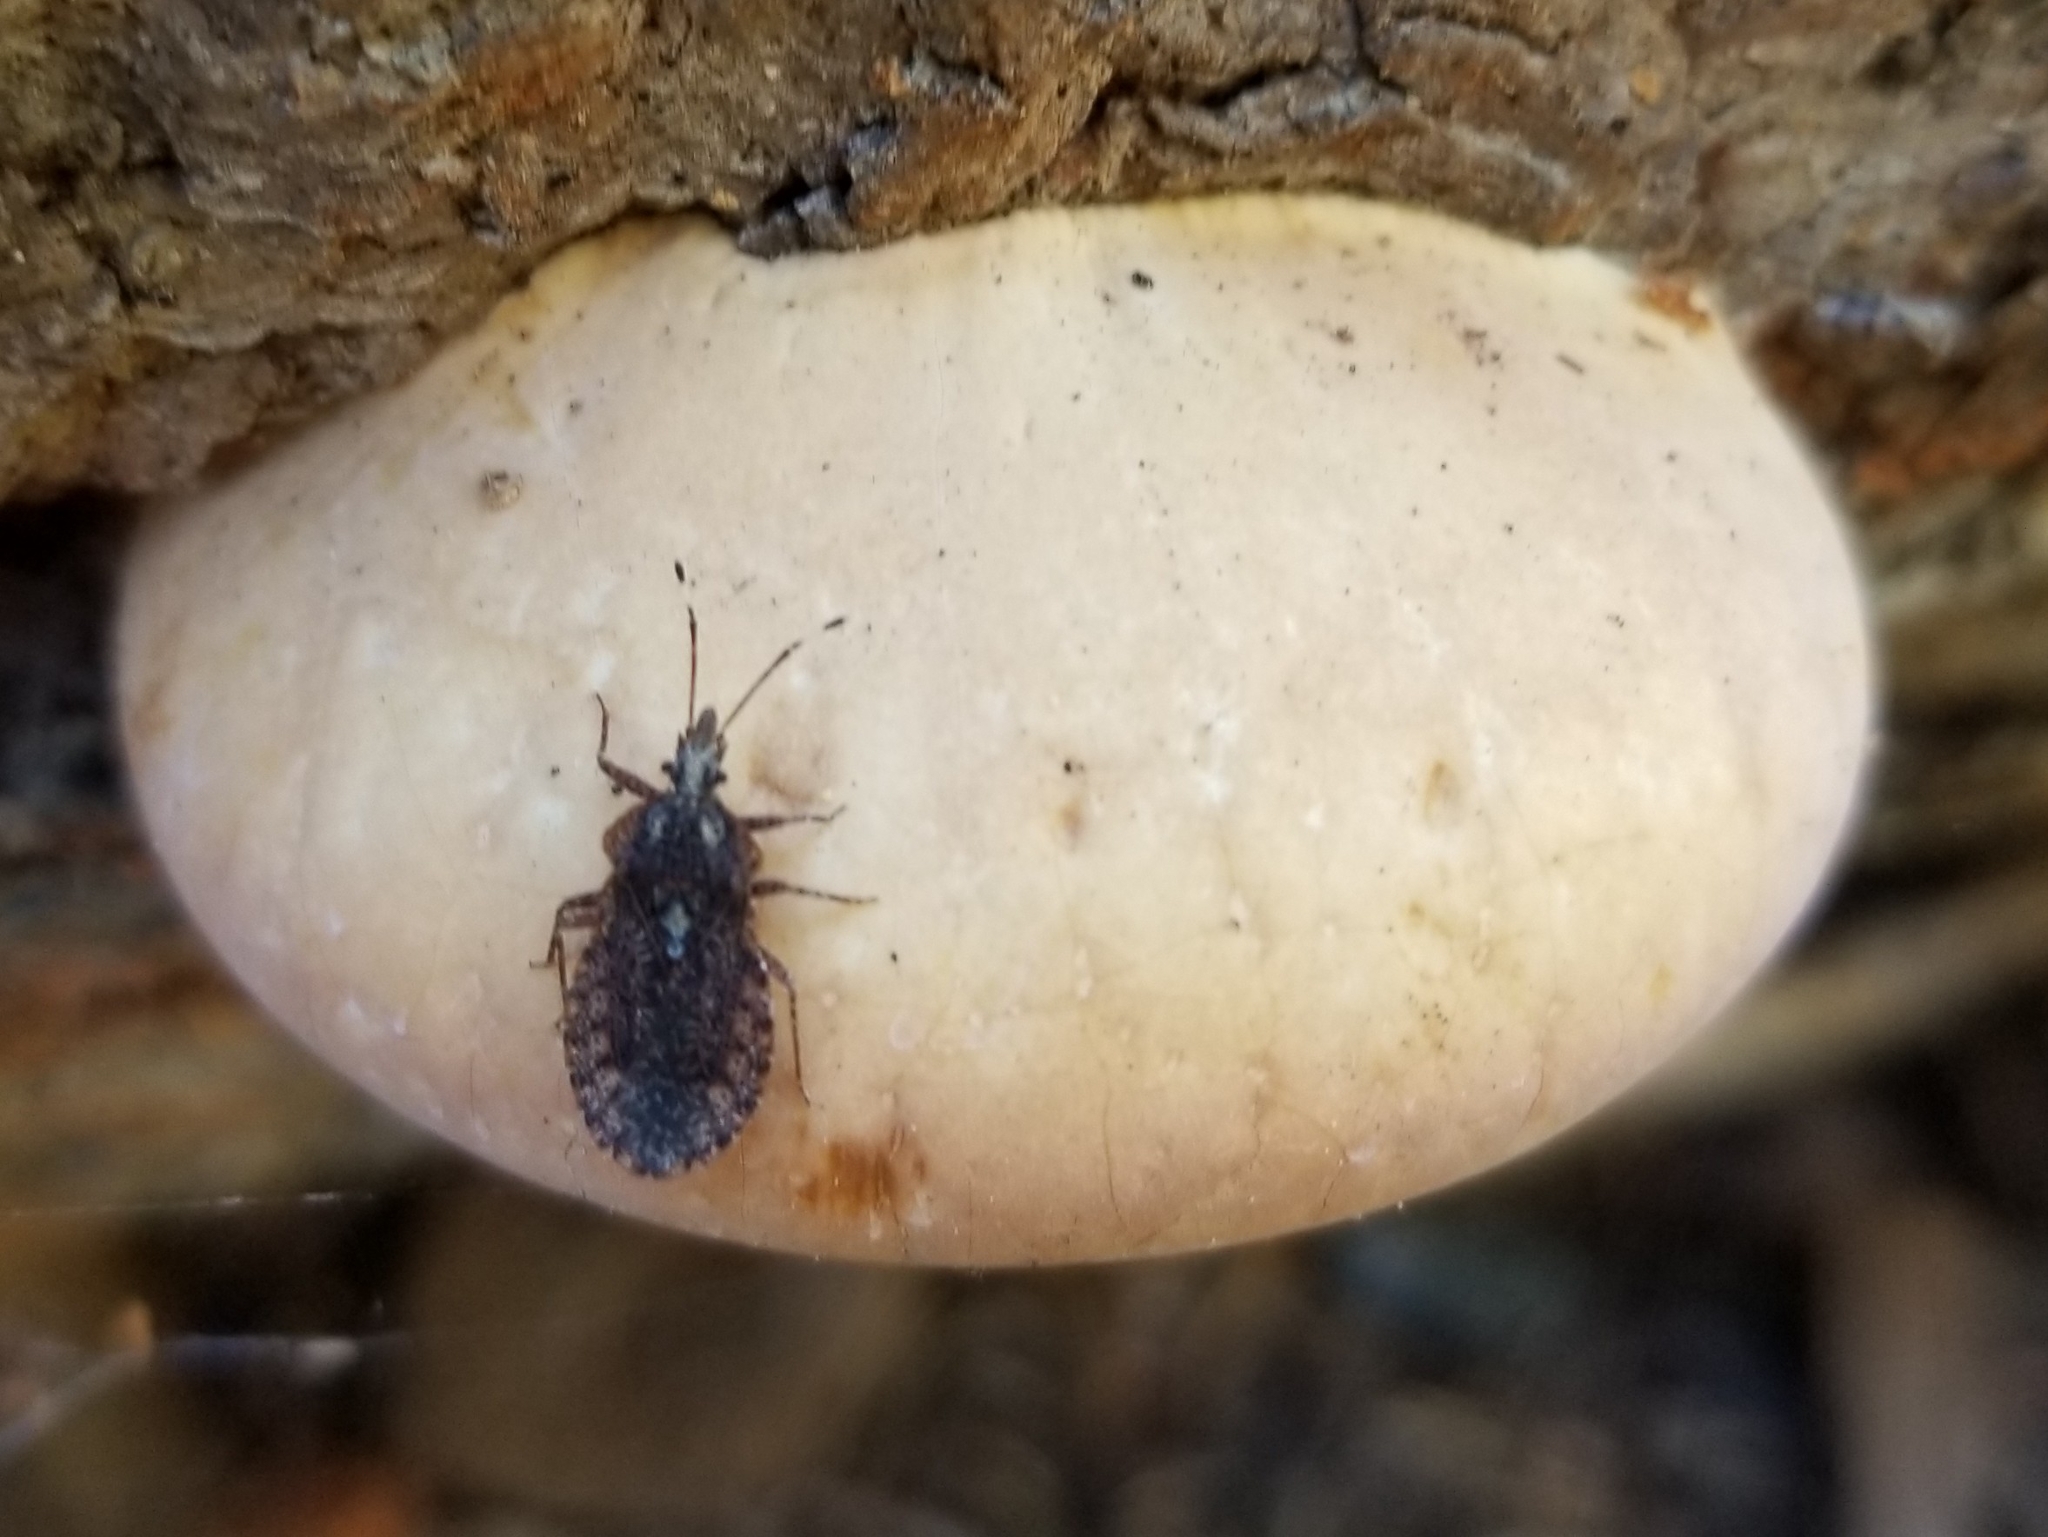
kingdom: Fungi
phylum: Basidiomycota
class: Agaricomycetes
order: Polyporales
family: Polyporaceae
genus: Cryptoporus
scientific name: Cryptoporus volvatus
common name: Veiled polypore
